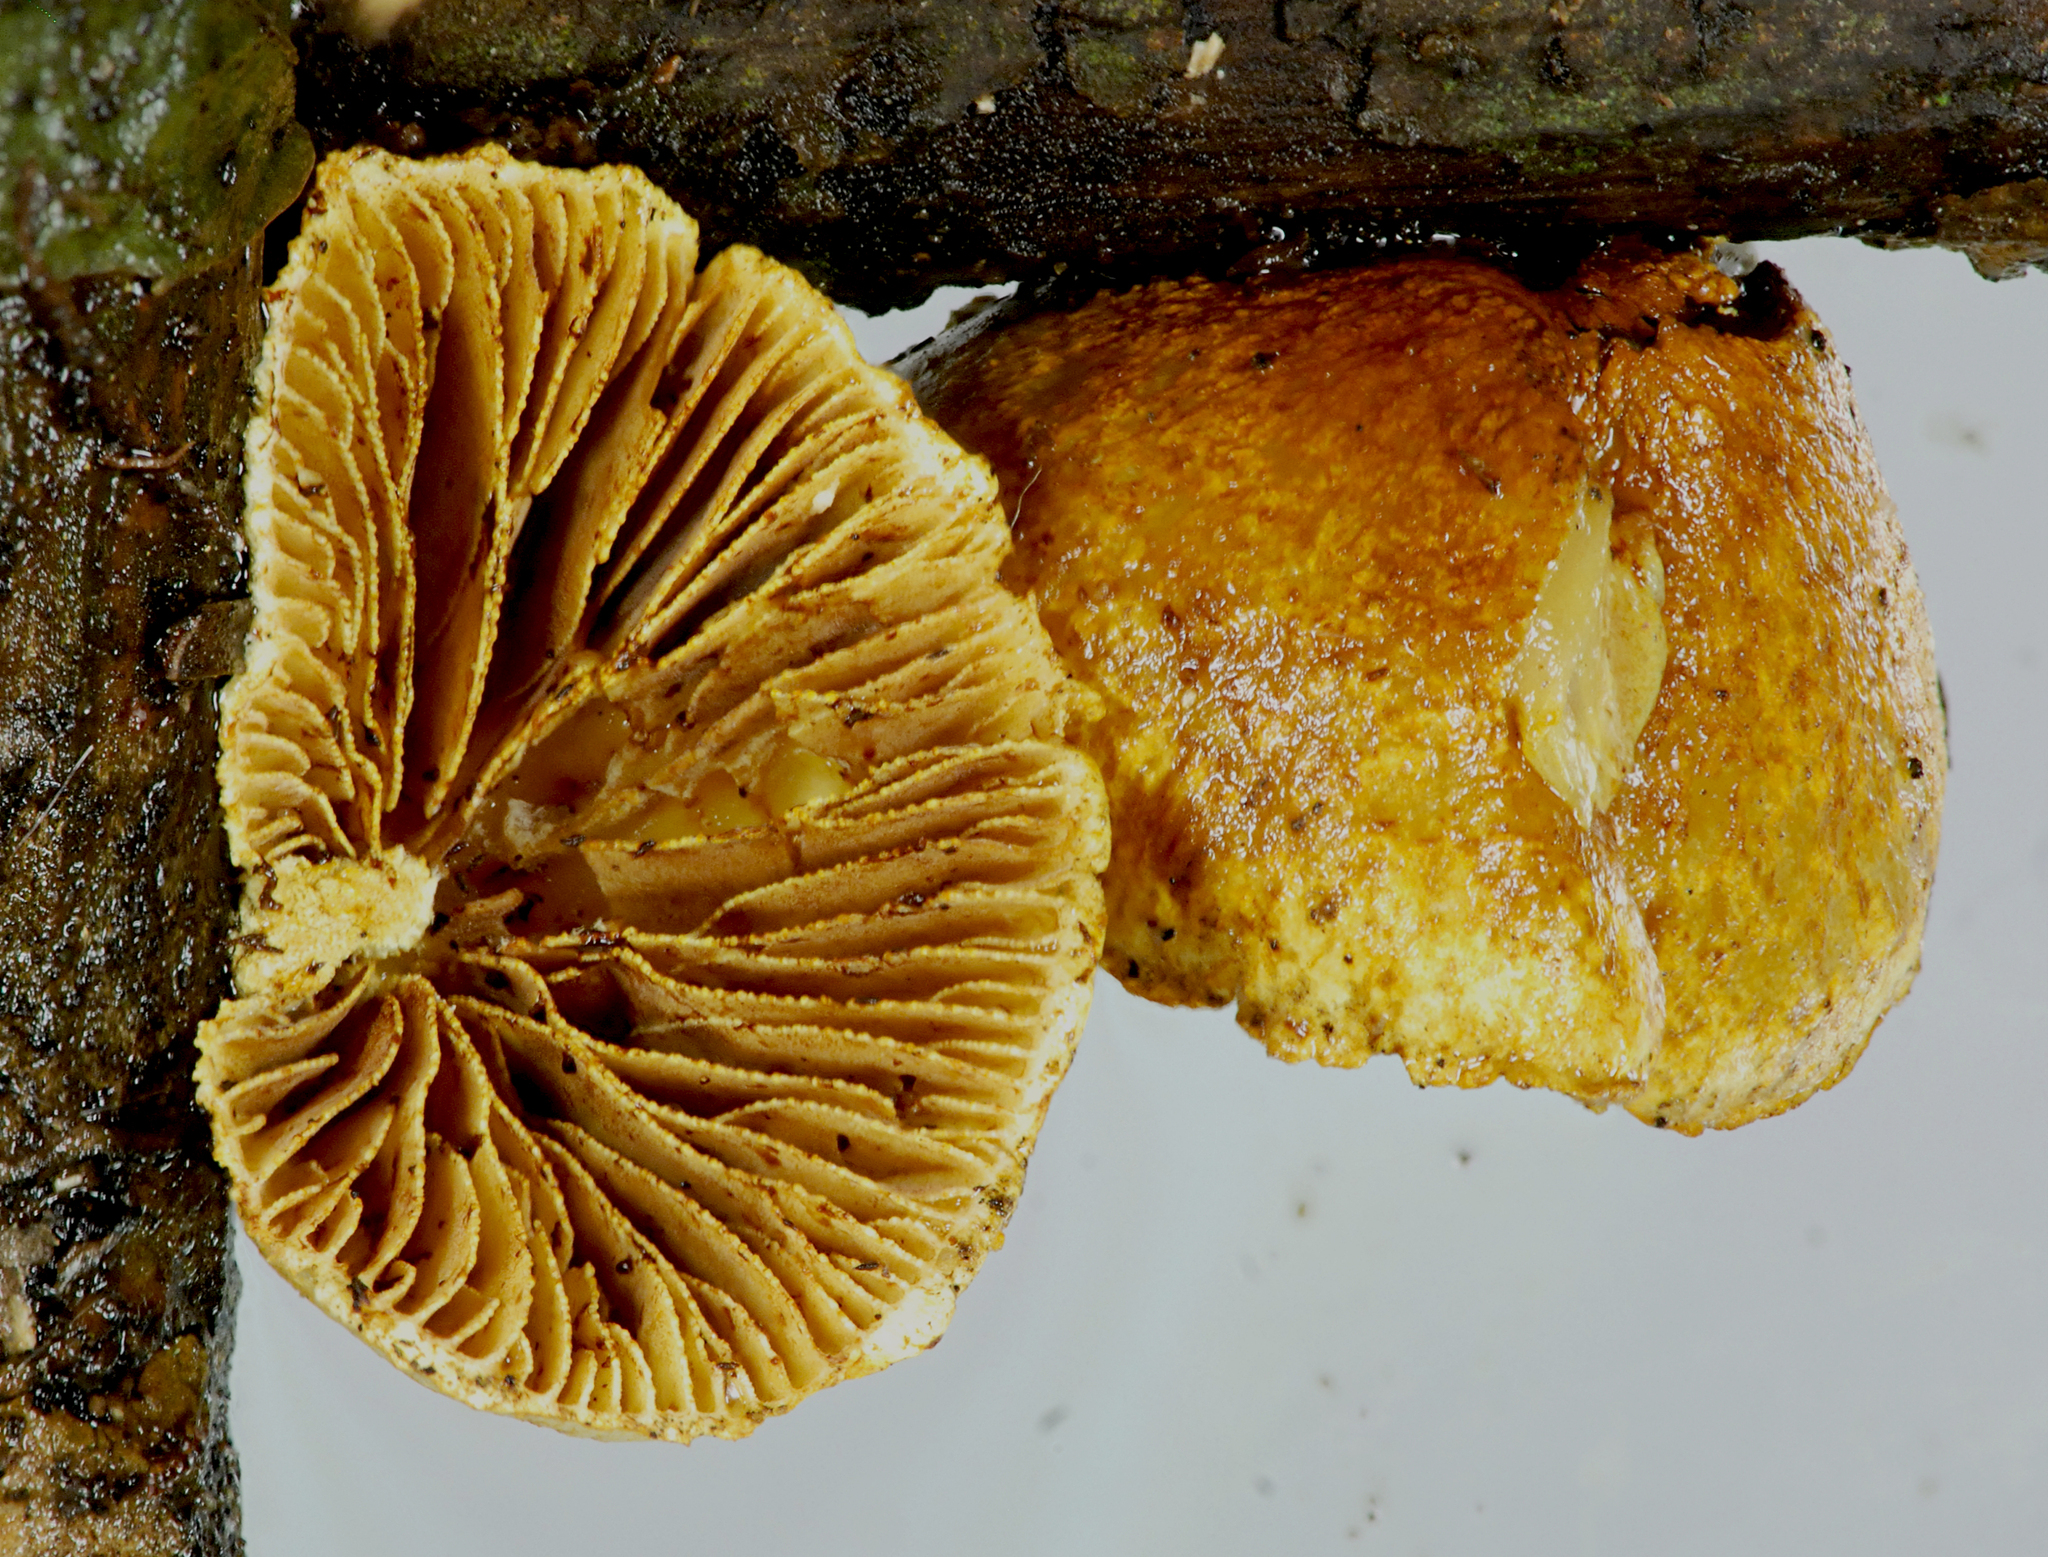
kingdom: Fungi
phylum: Basidiomycota
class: Agaricomycetes
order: Agaricales
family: Crepidotaceae
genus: Pleuroflammula
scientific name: Pleuroflammula praestans
